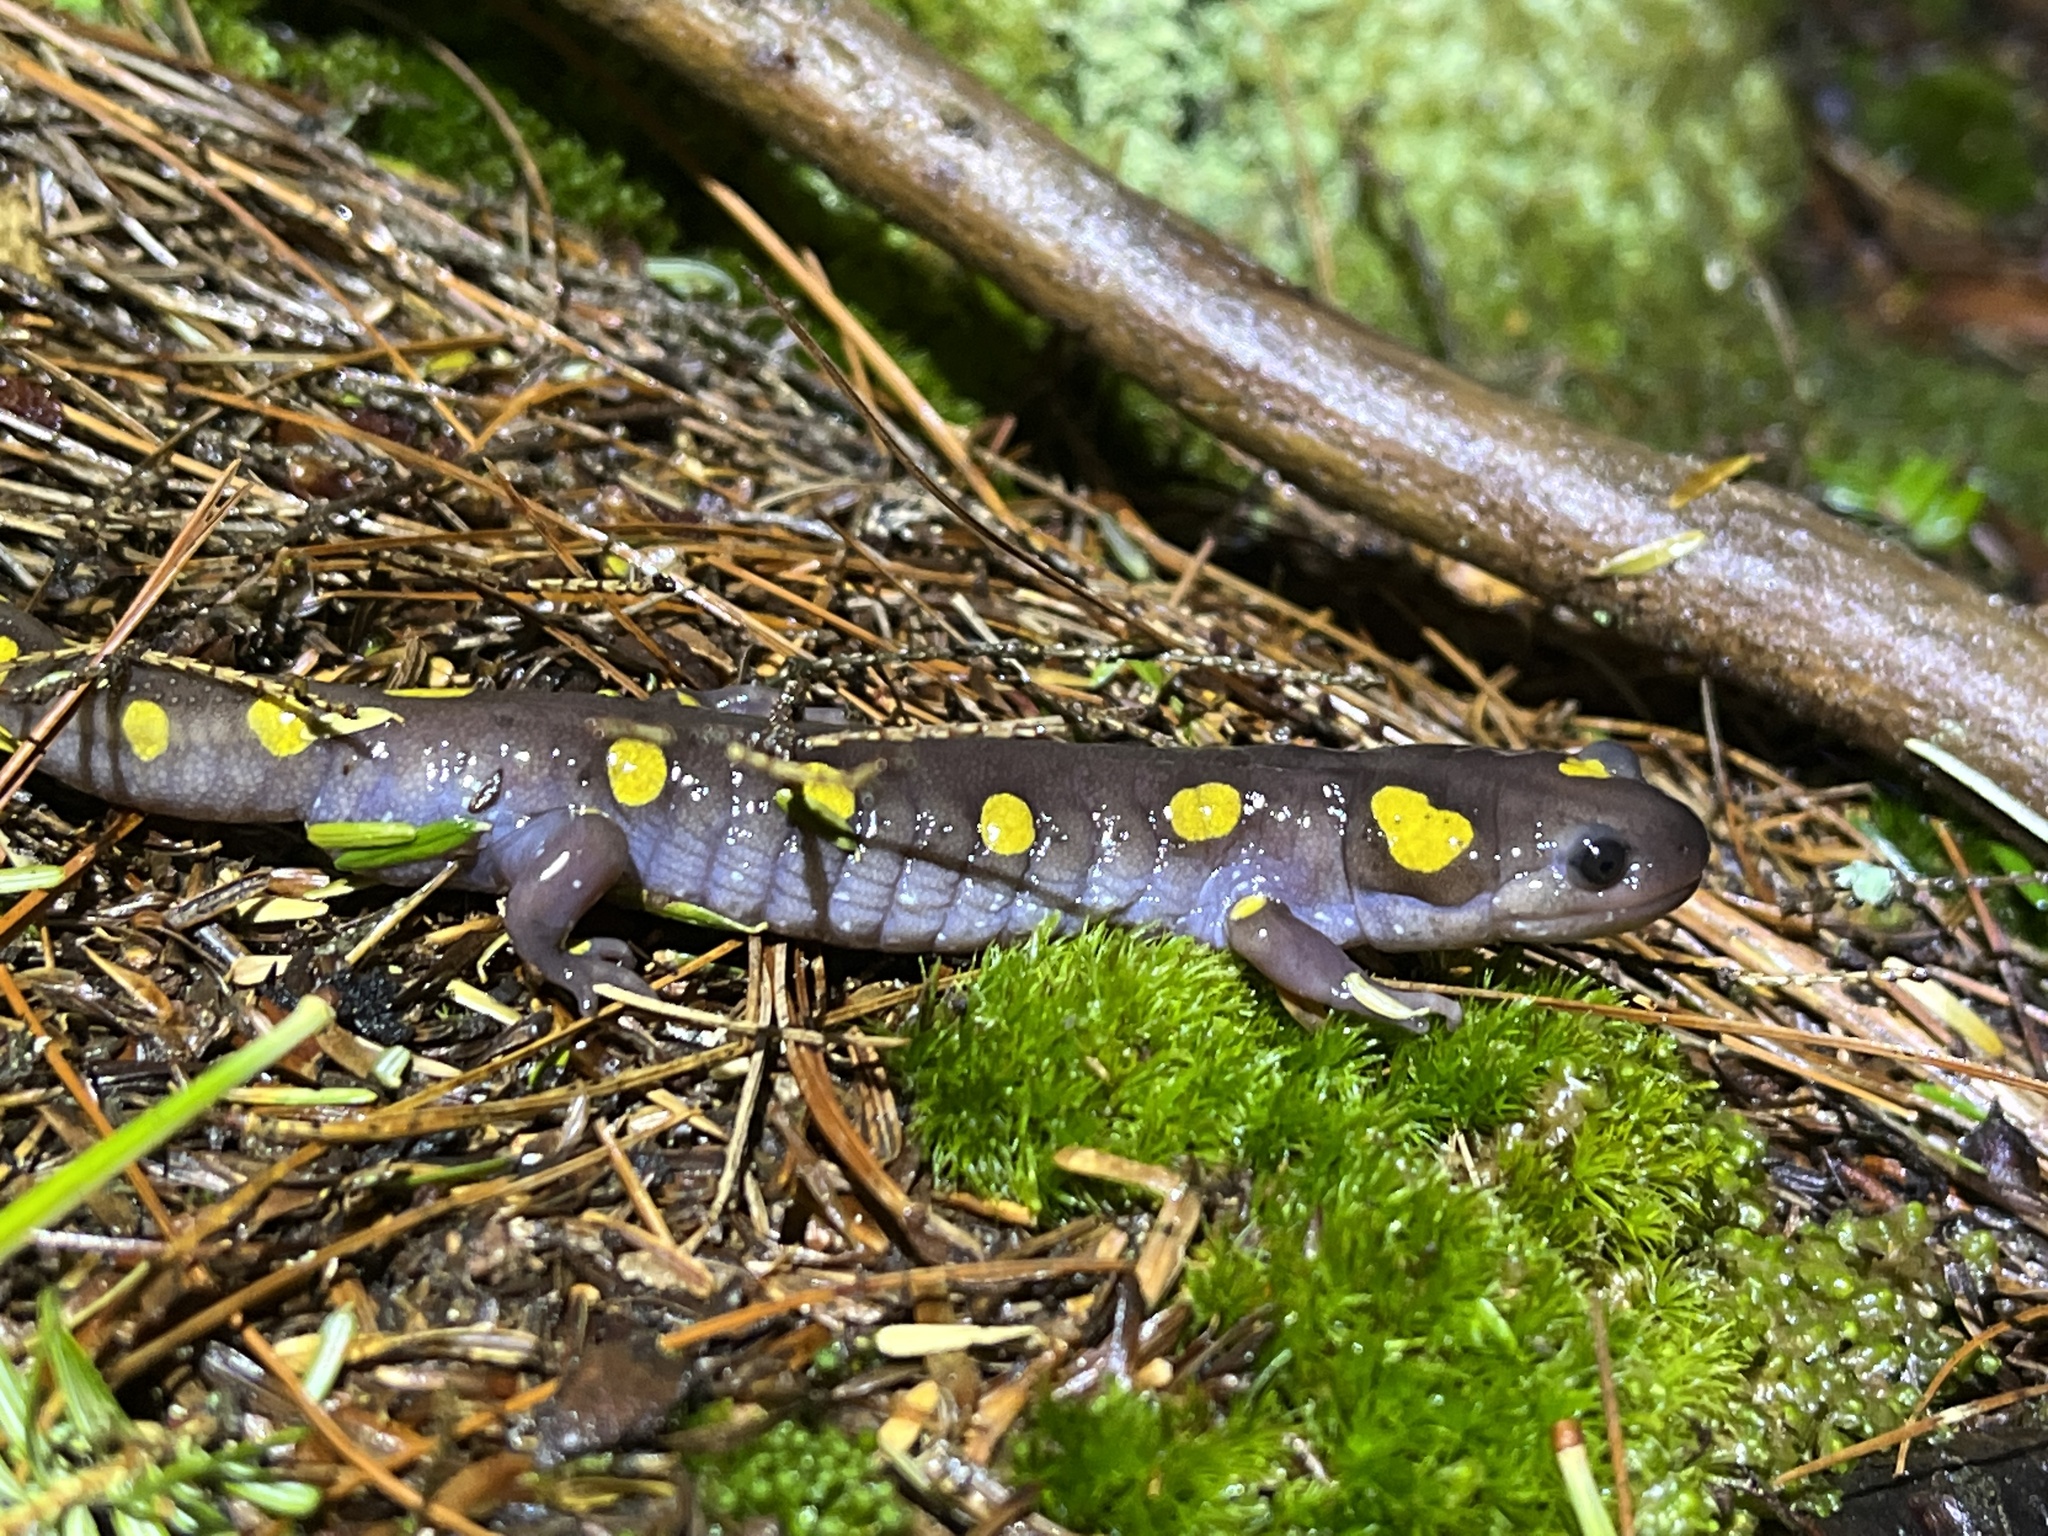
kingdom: Animalia
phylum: Chordata
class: Amphibia
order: Caudata
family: Ambystomatidae
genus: Ambystoma
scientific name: Ambystoma maculatum
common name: Spotted salamander
